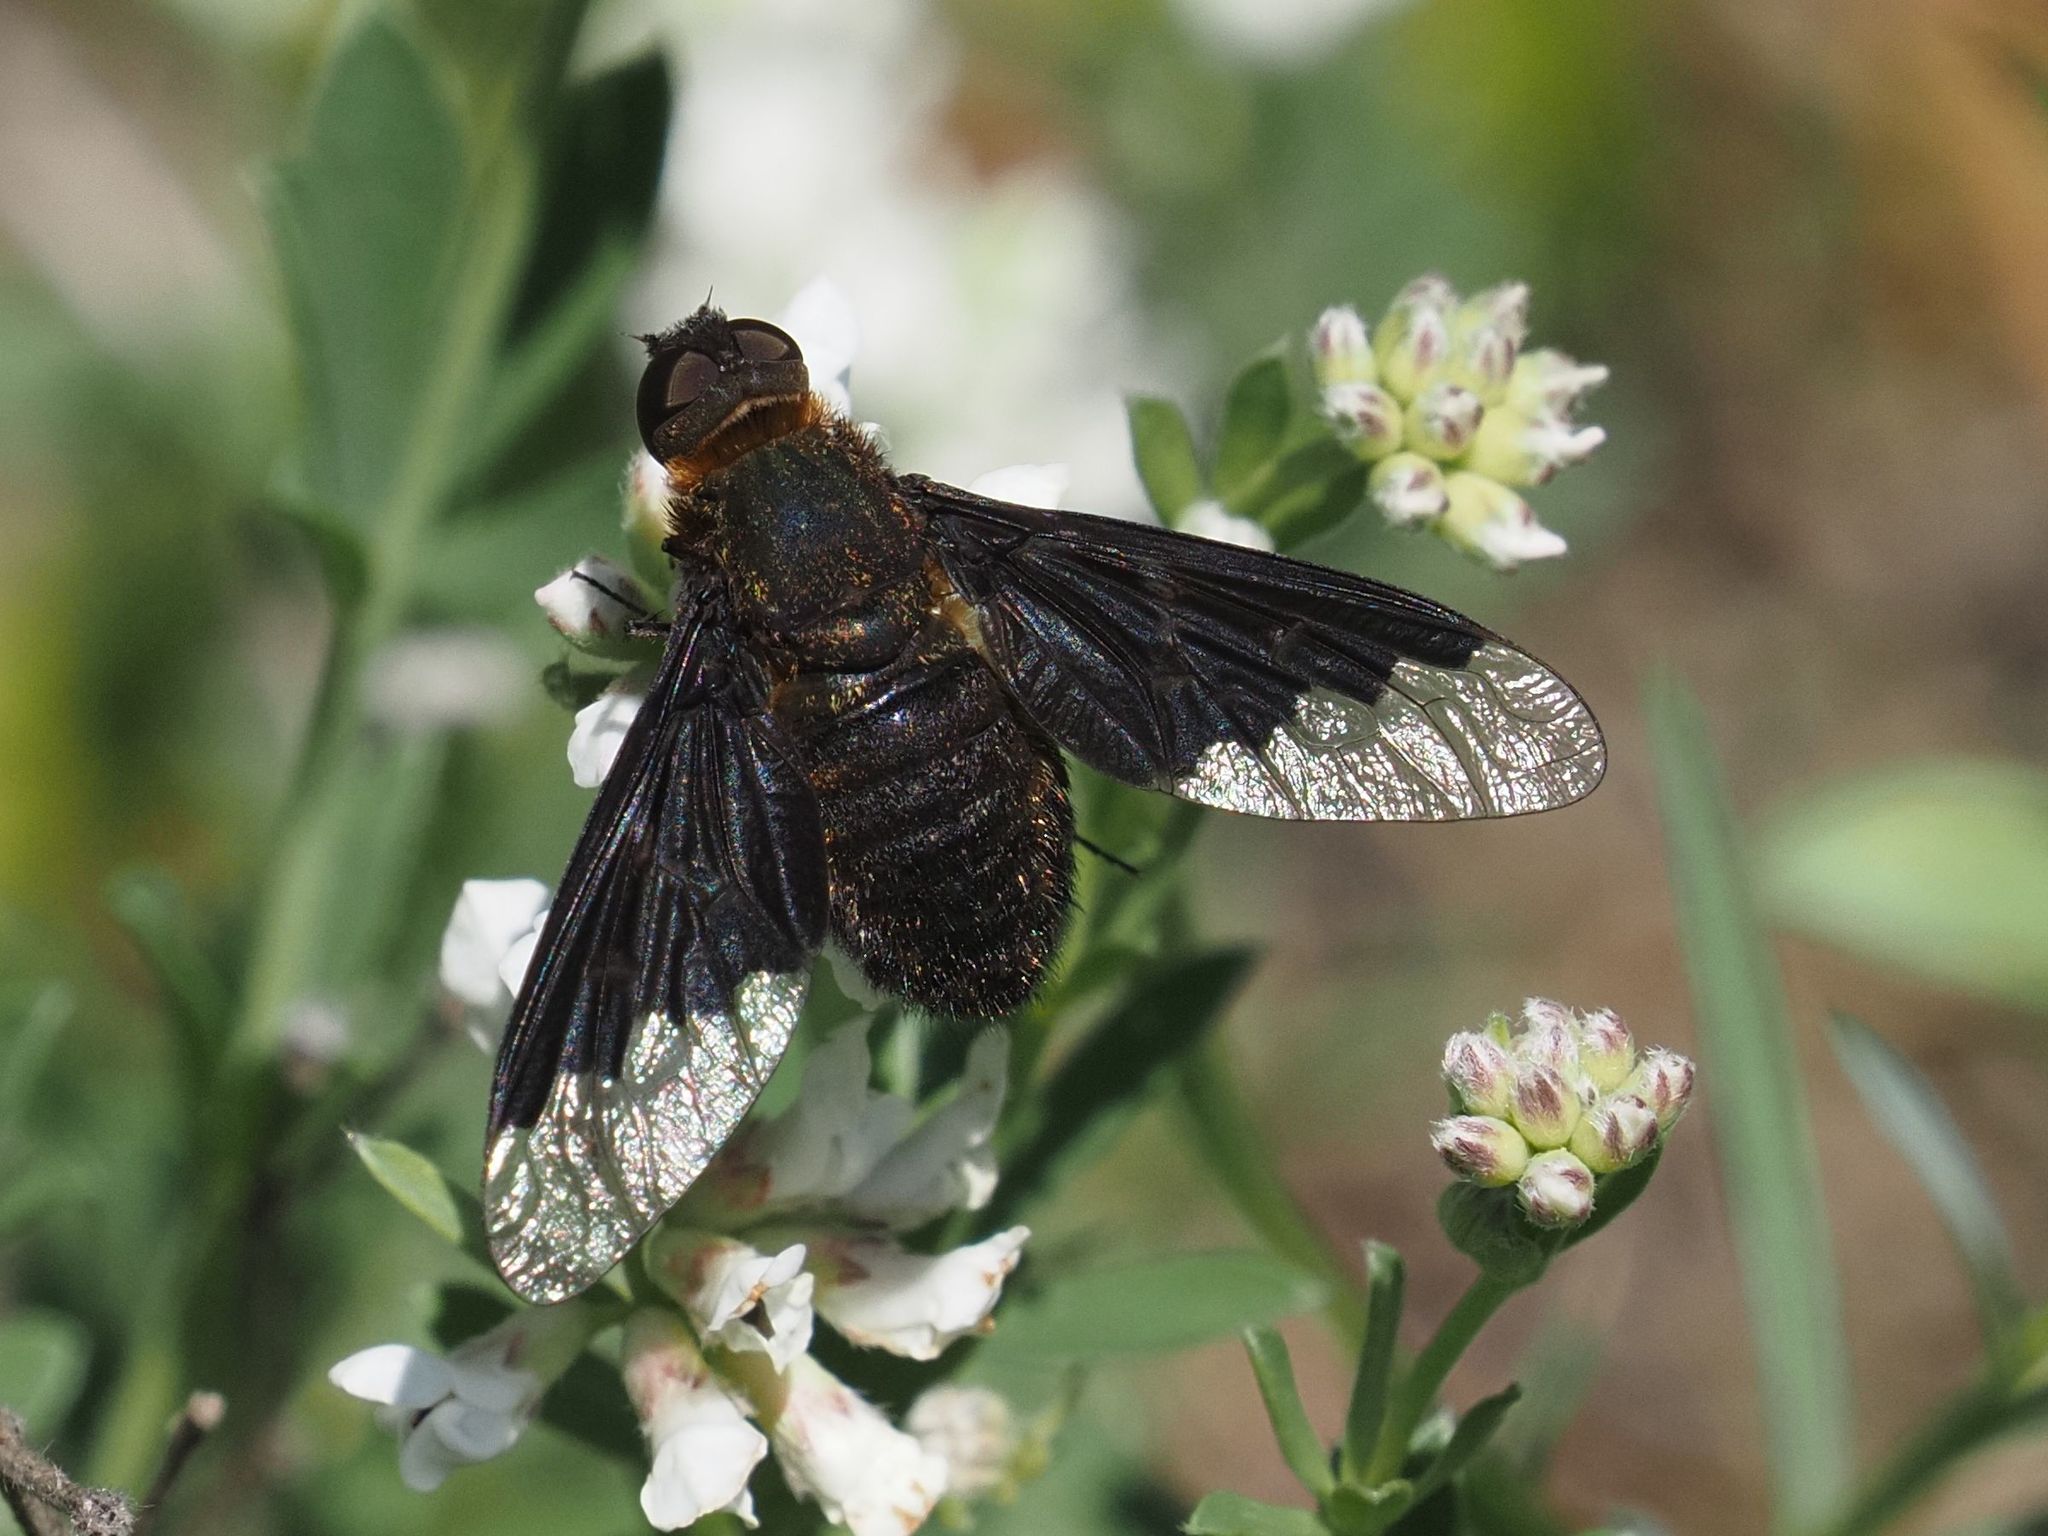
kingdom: Animalia
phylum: Arthropoda
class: Insecta
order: Diptera
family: Bombyliidae
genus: Hemipenthes
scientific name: Hemipenthes morio
